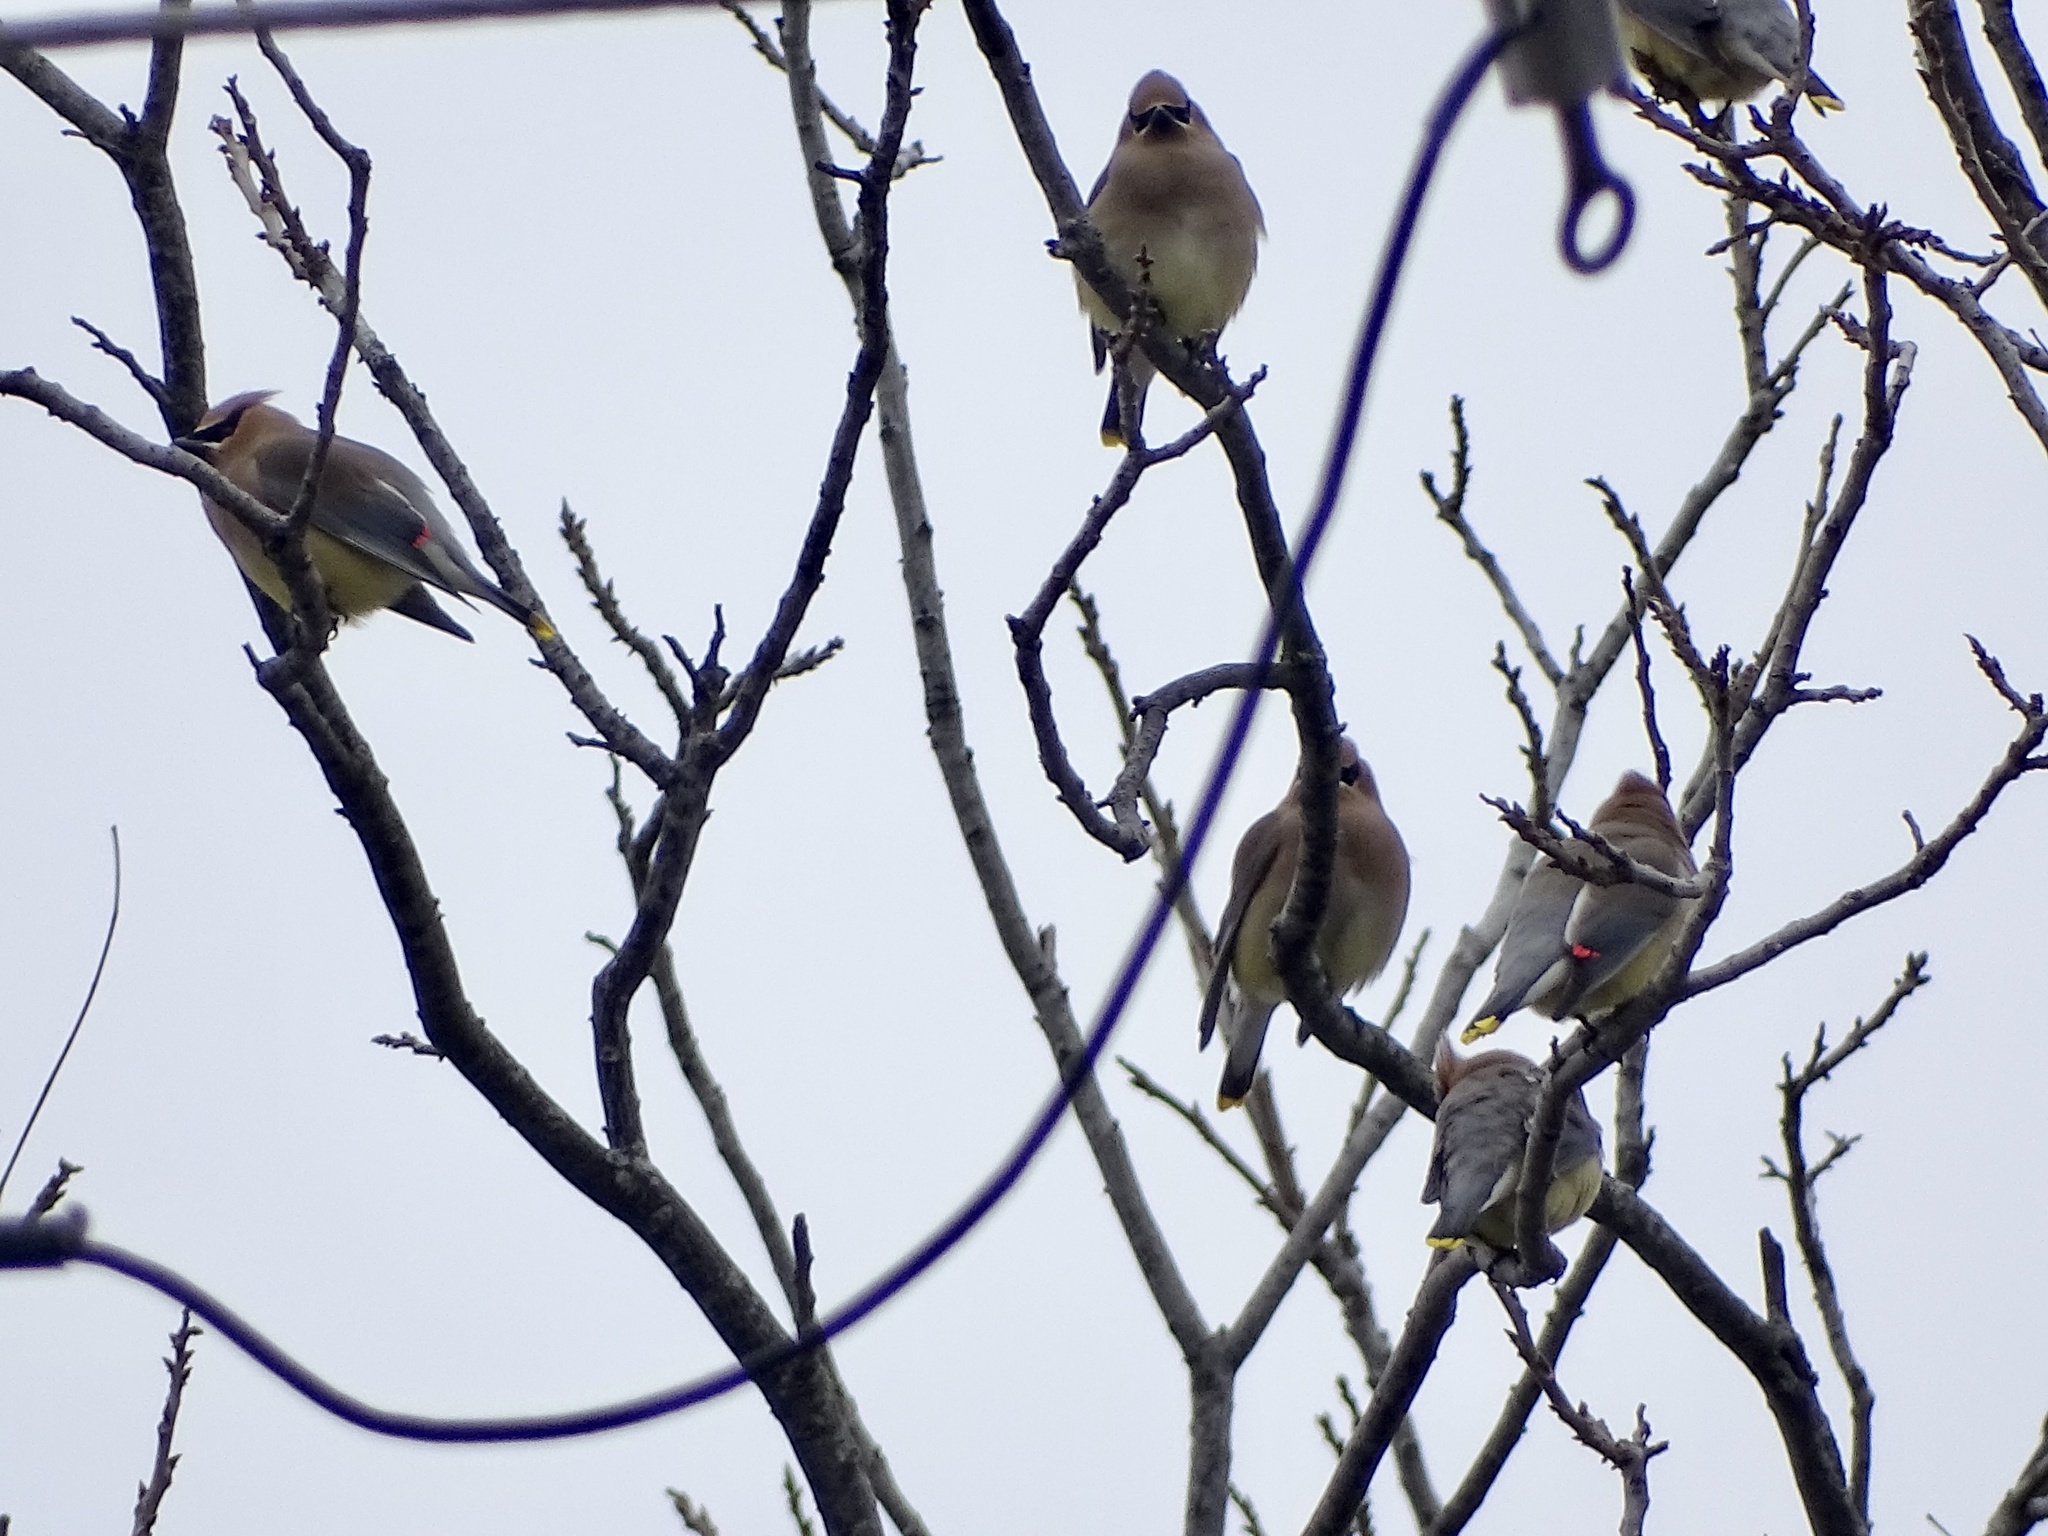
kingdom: Animalia
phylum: Chordata
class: Aves
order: Passeriformes
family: Bombycillidae
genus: Bombycilla
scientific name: Bombycilla cedrorum
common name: Cedar waxwing
